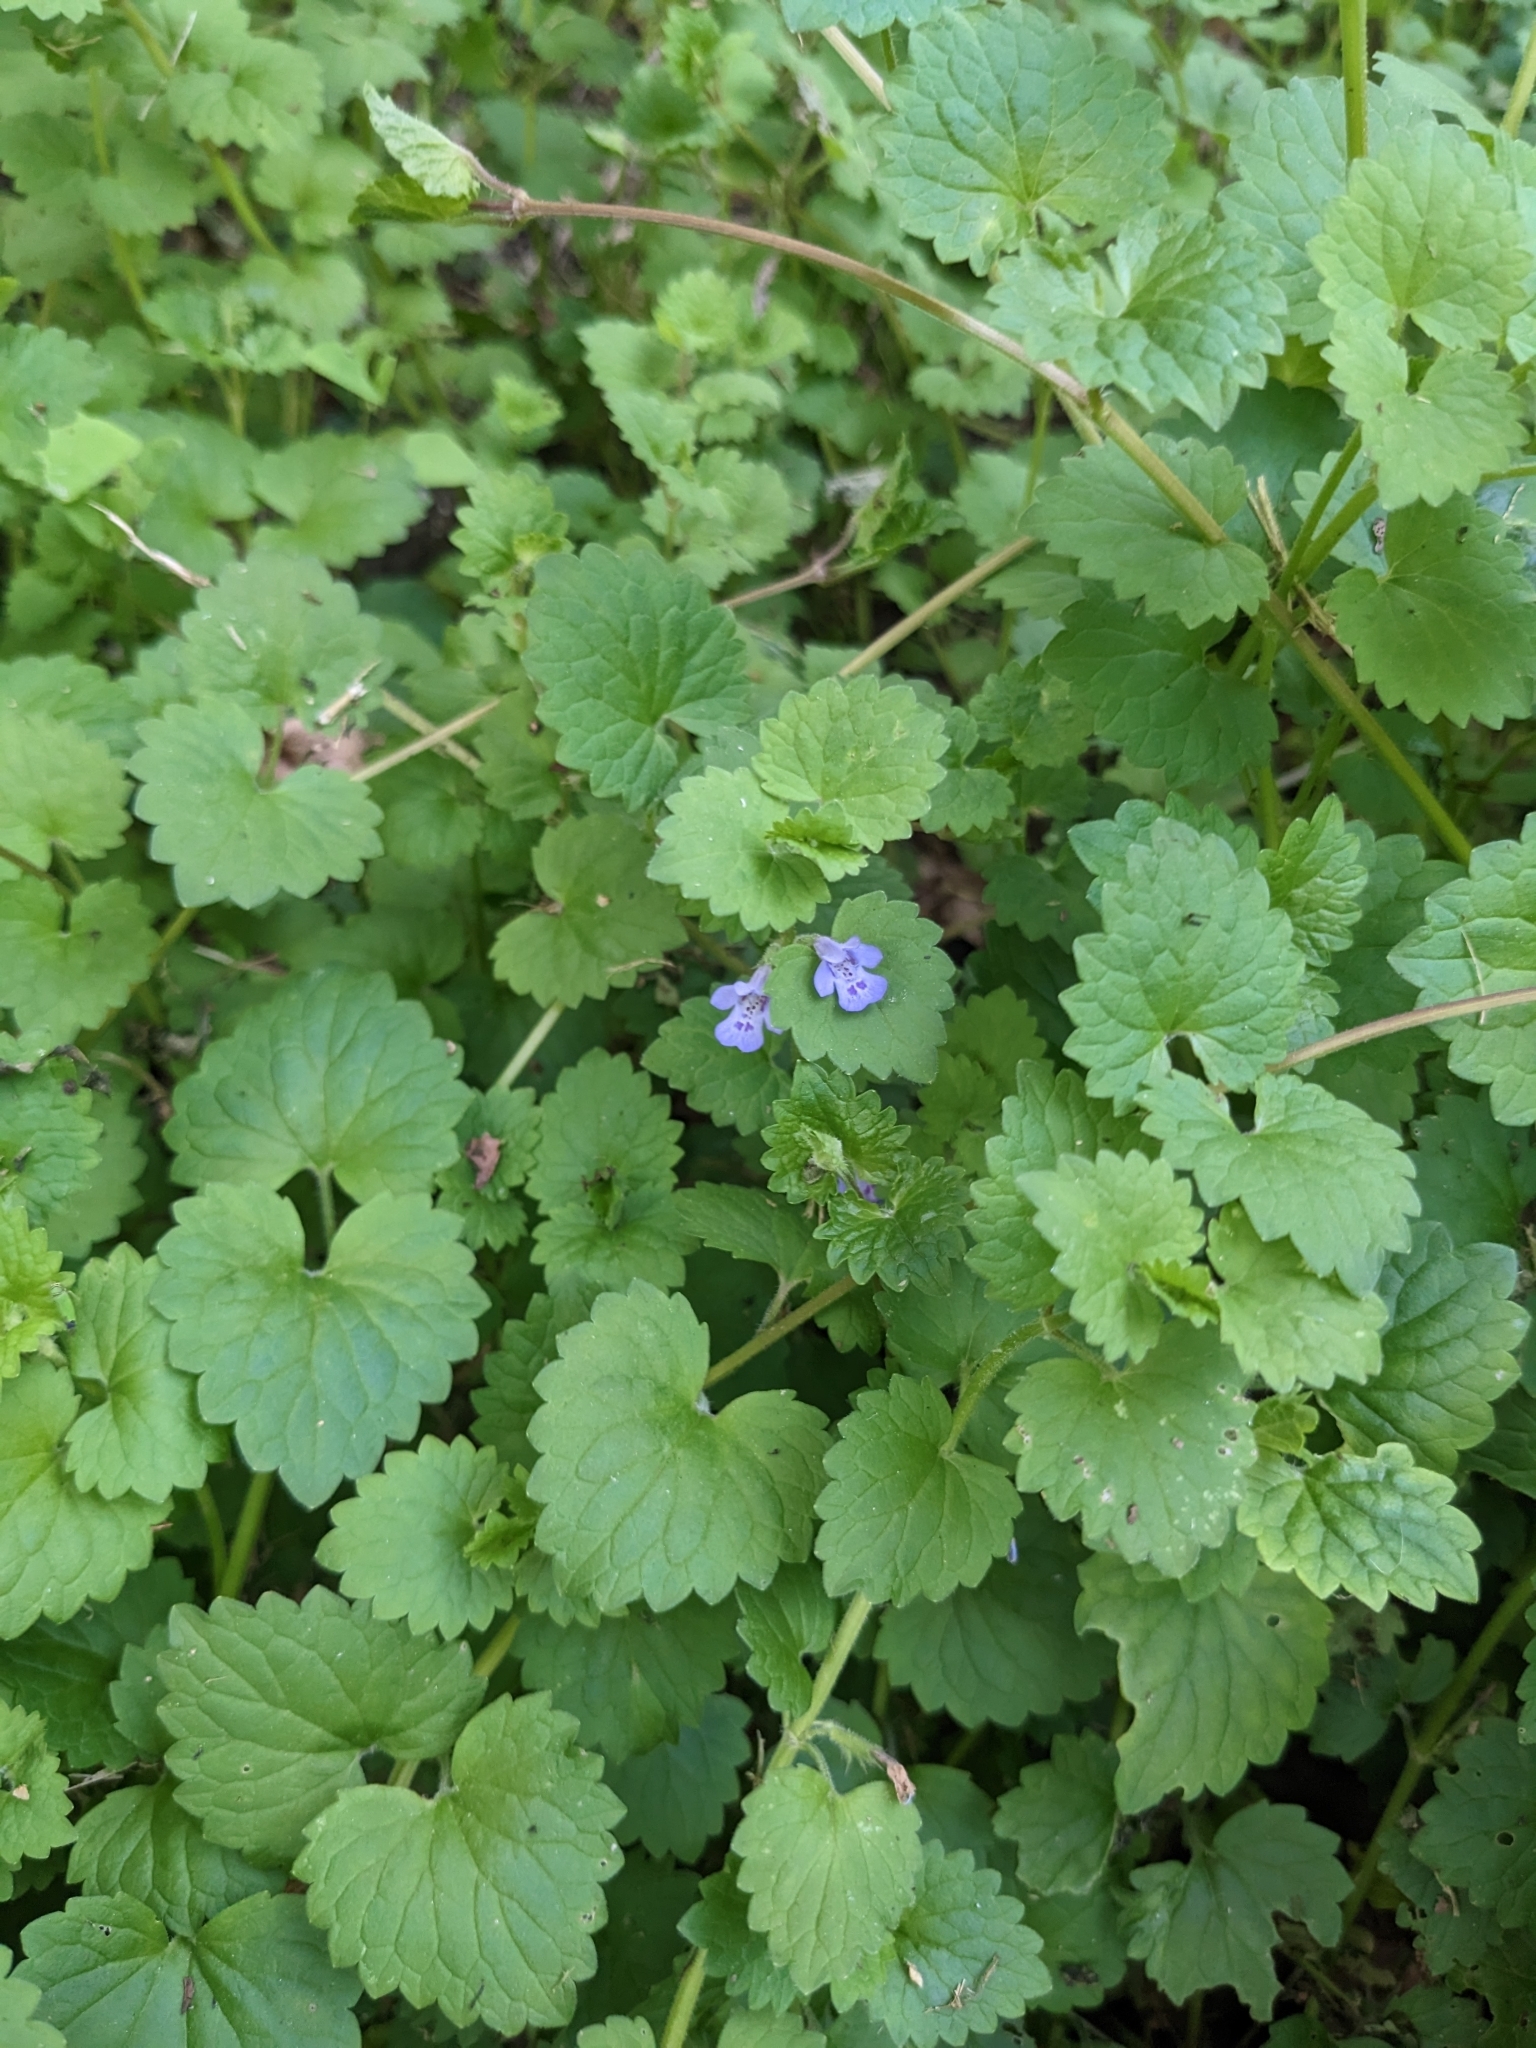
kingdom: Plantae
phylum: Tracheophyta
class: Magnoliopsida
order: Lamiales
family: Lamiaceae
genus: Glechoma
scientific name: Glechoma hederacea
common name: Ground ivy
